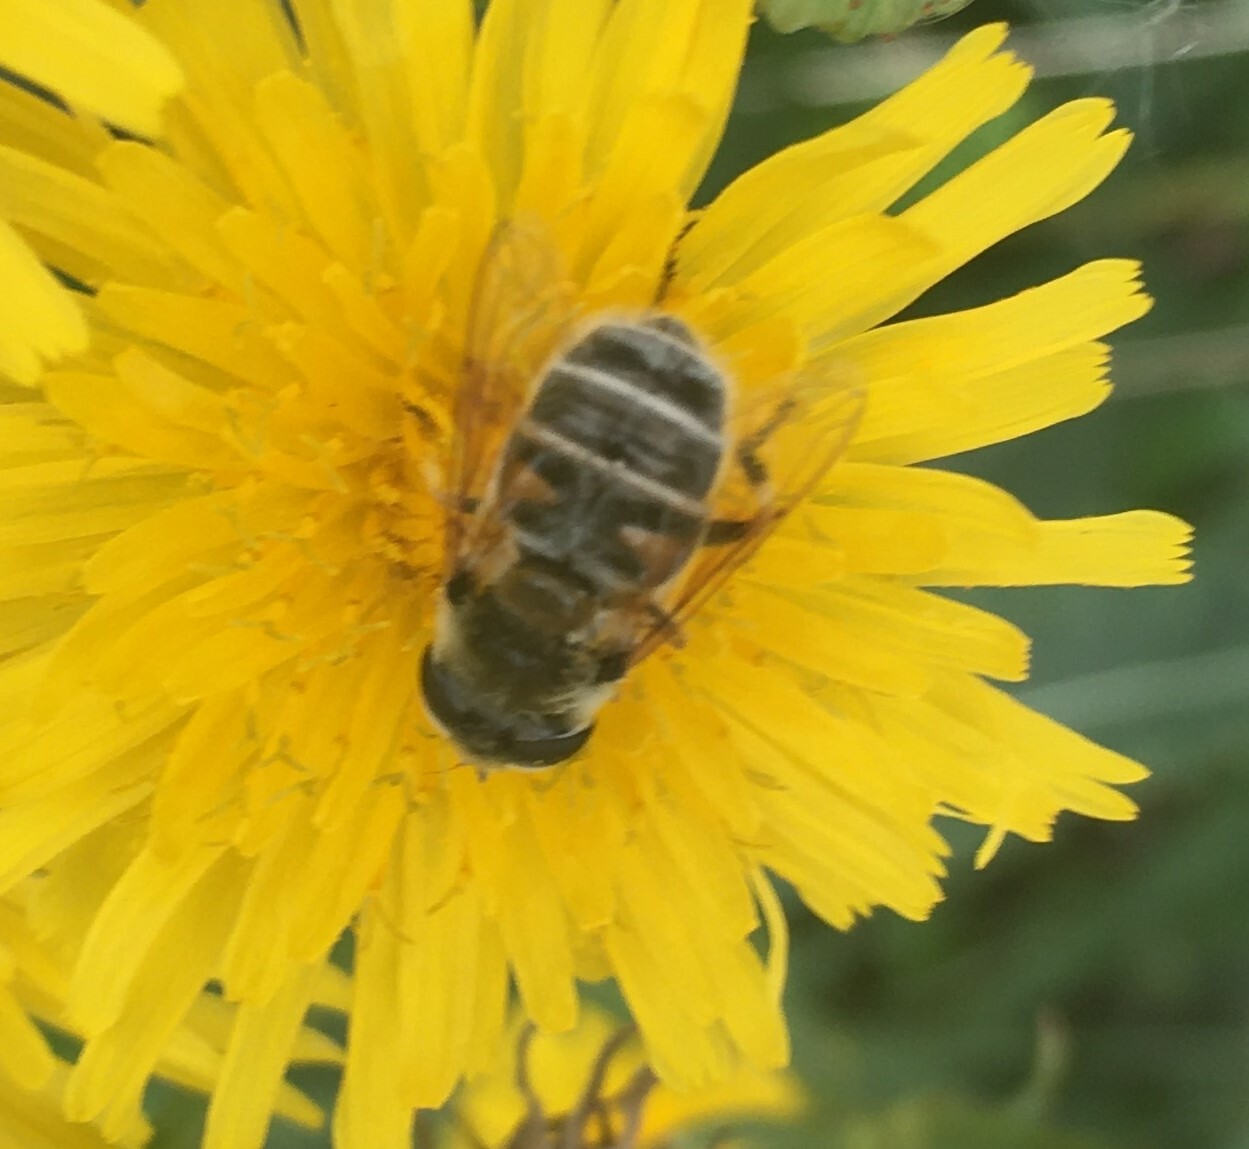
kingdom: Animalia
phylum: Arthropoda
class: Insecta
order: Diptera
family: Syrphidae
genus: Eristalis
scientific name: Eristalis stipator
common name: Yellow-shouldered drone fly
